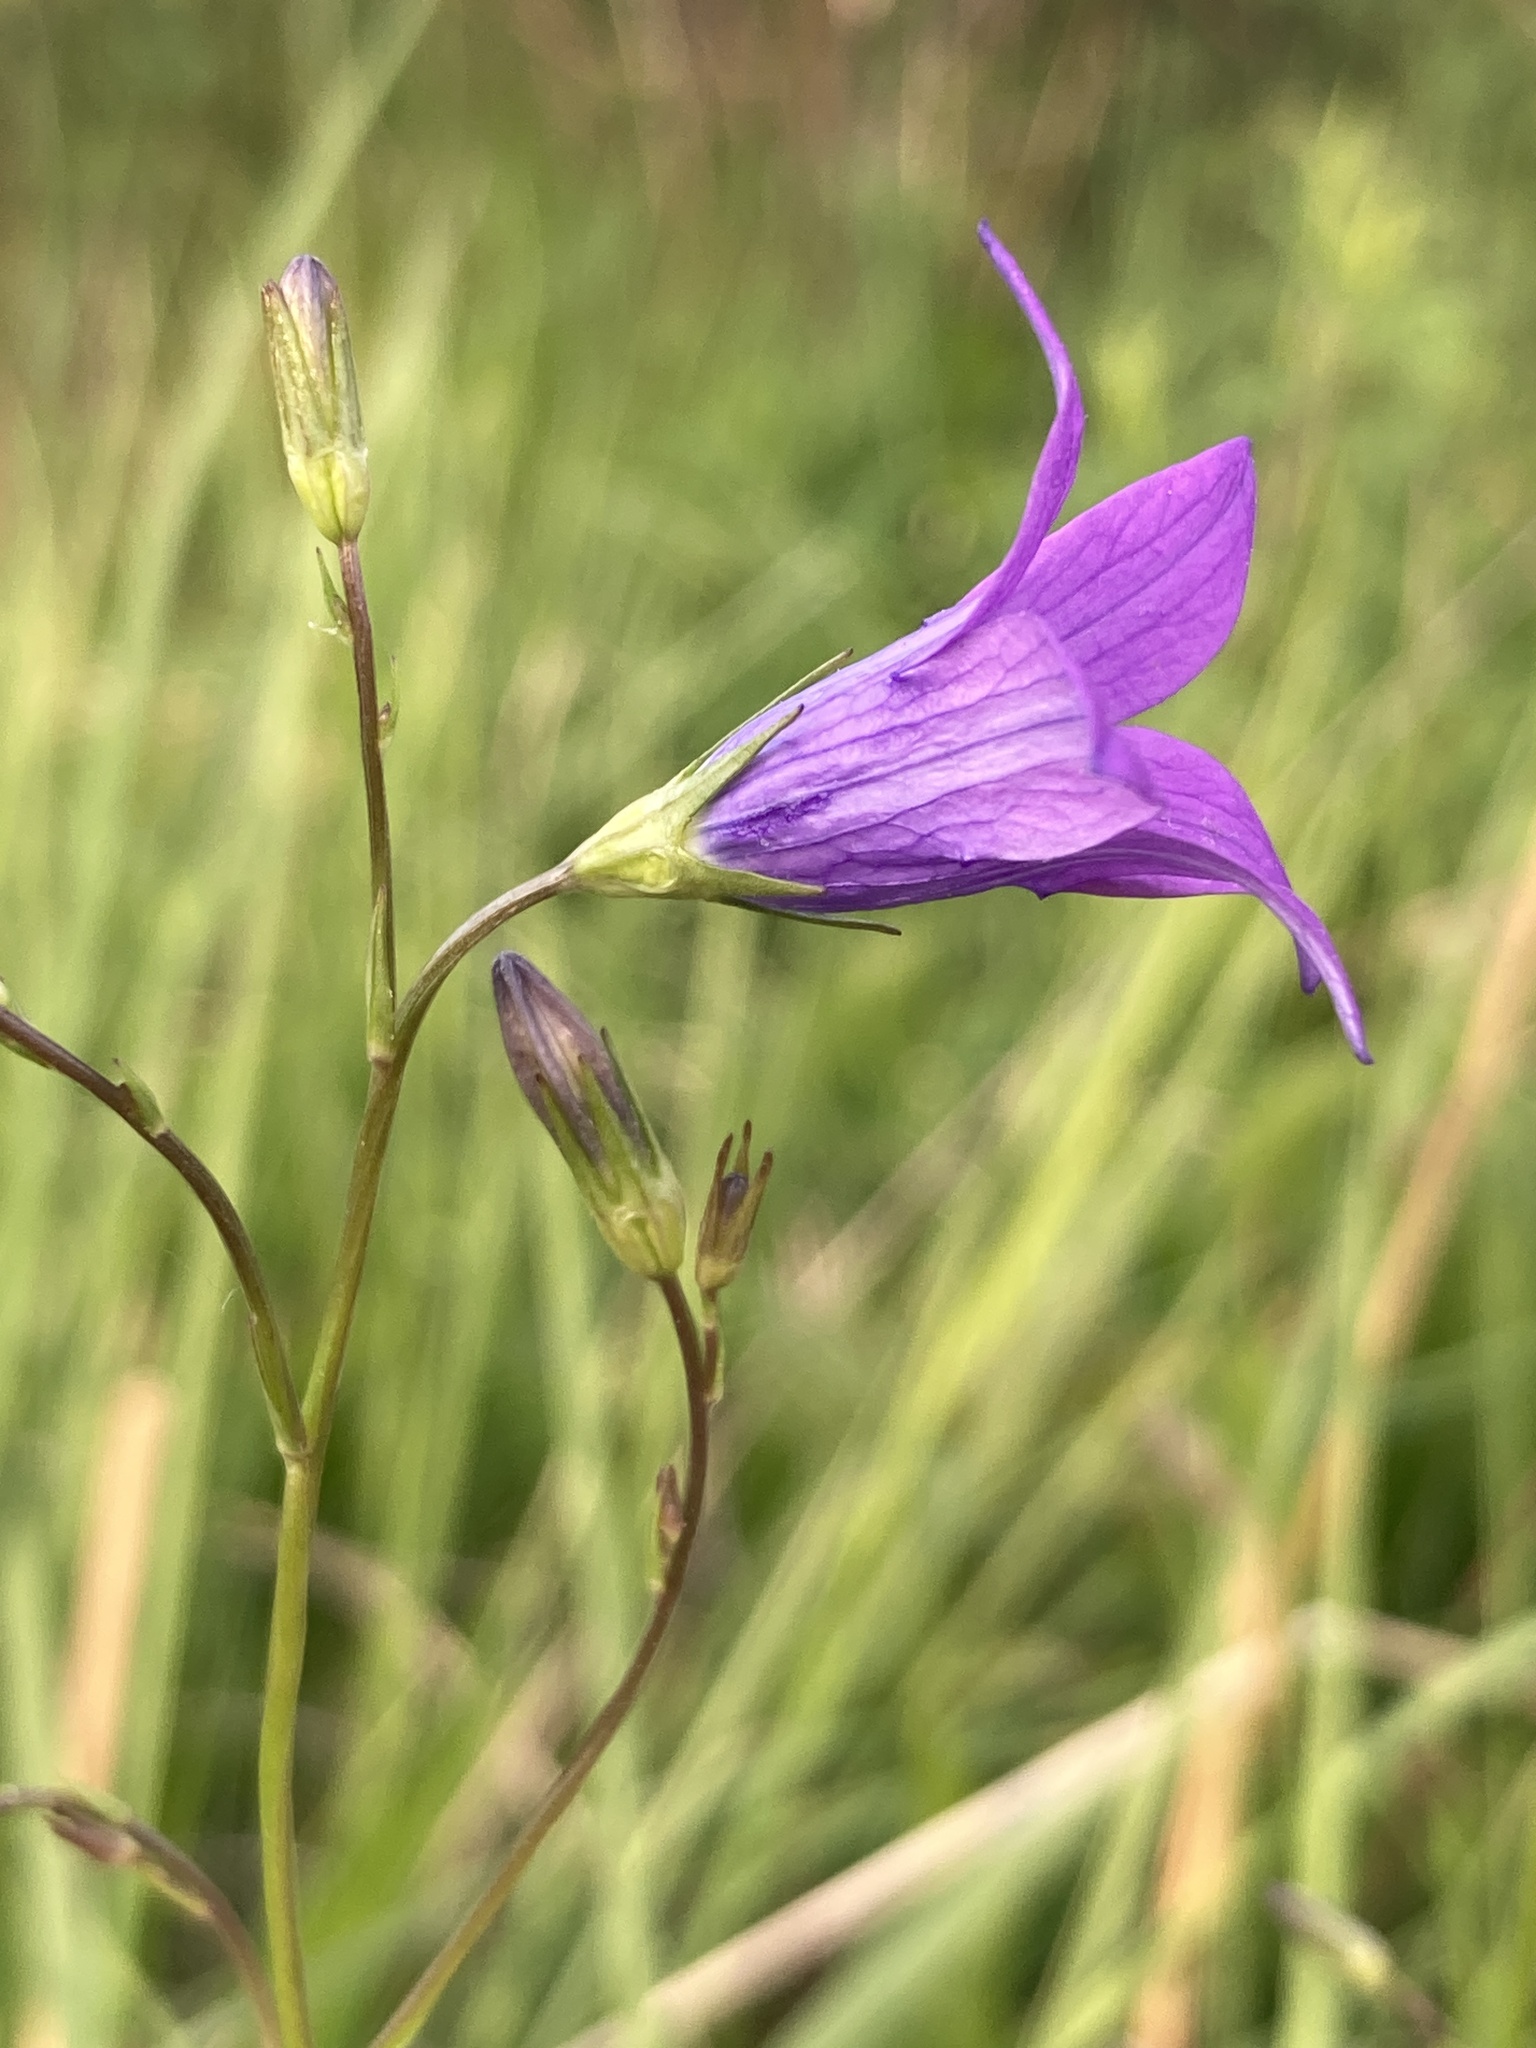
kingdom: Plantae
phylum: Tracheophyta
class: Magnoliopsida
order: Asterales
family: Campanulaceae
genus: Campanula
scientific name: Campanula patula
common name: Spreading bellflower
